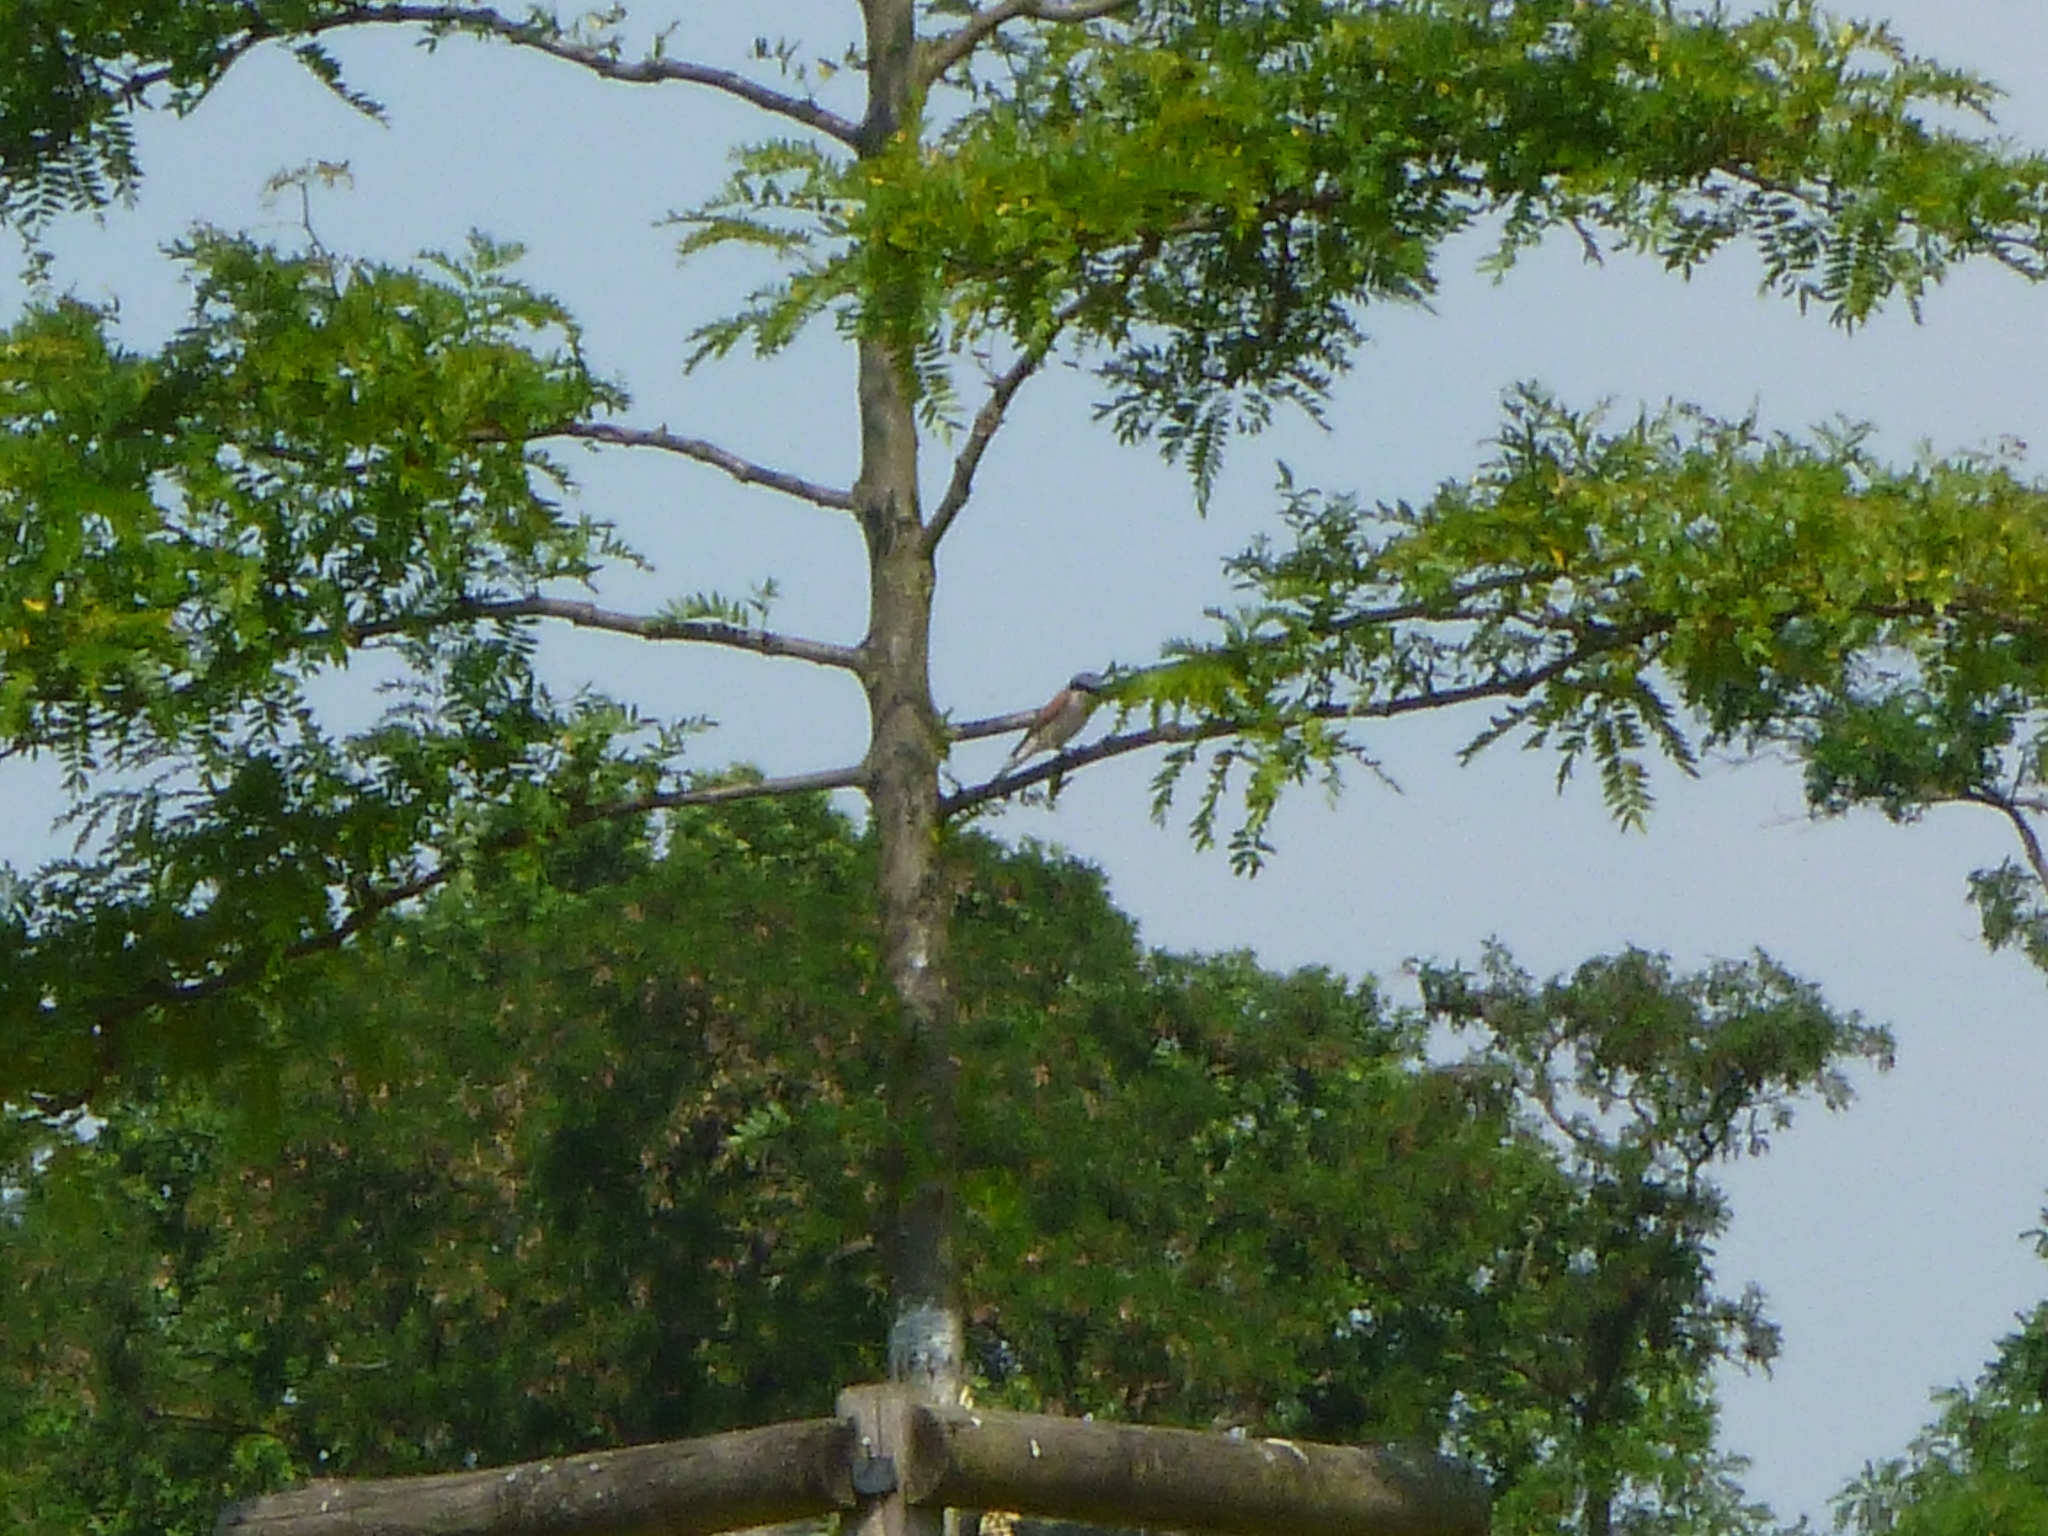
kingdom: Animalia
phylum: Chordata
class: Aves
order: Passeriformes
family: Laniidae
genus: Lanius
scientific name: Lanius collurio
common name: Red-backed shrike
